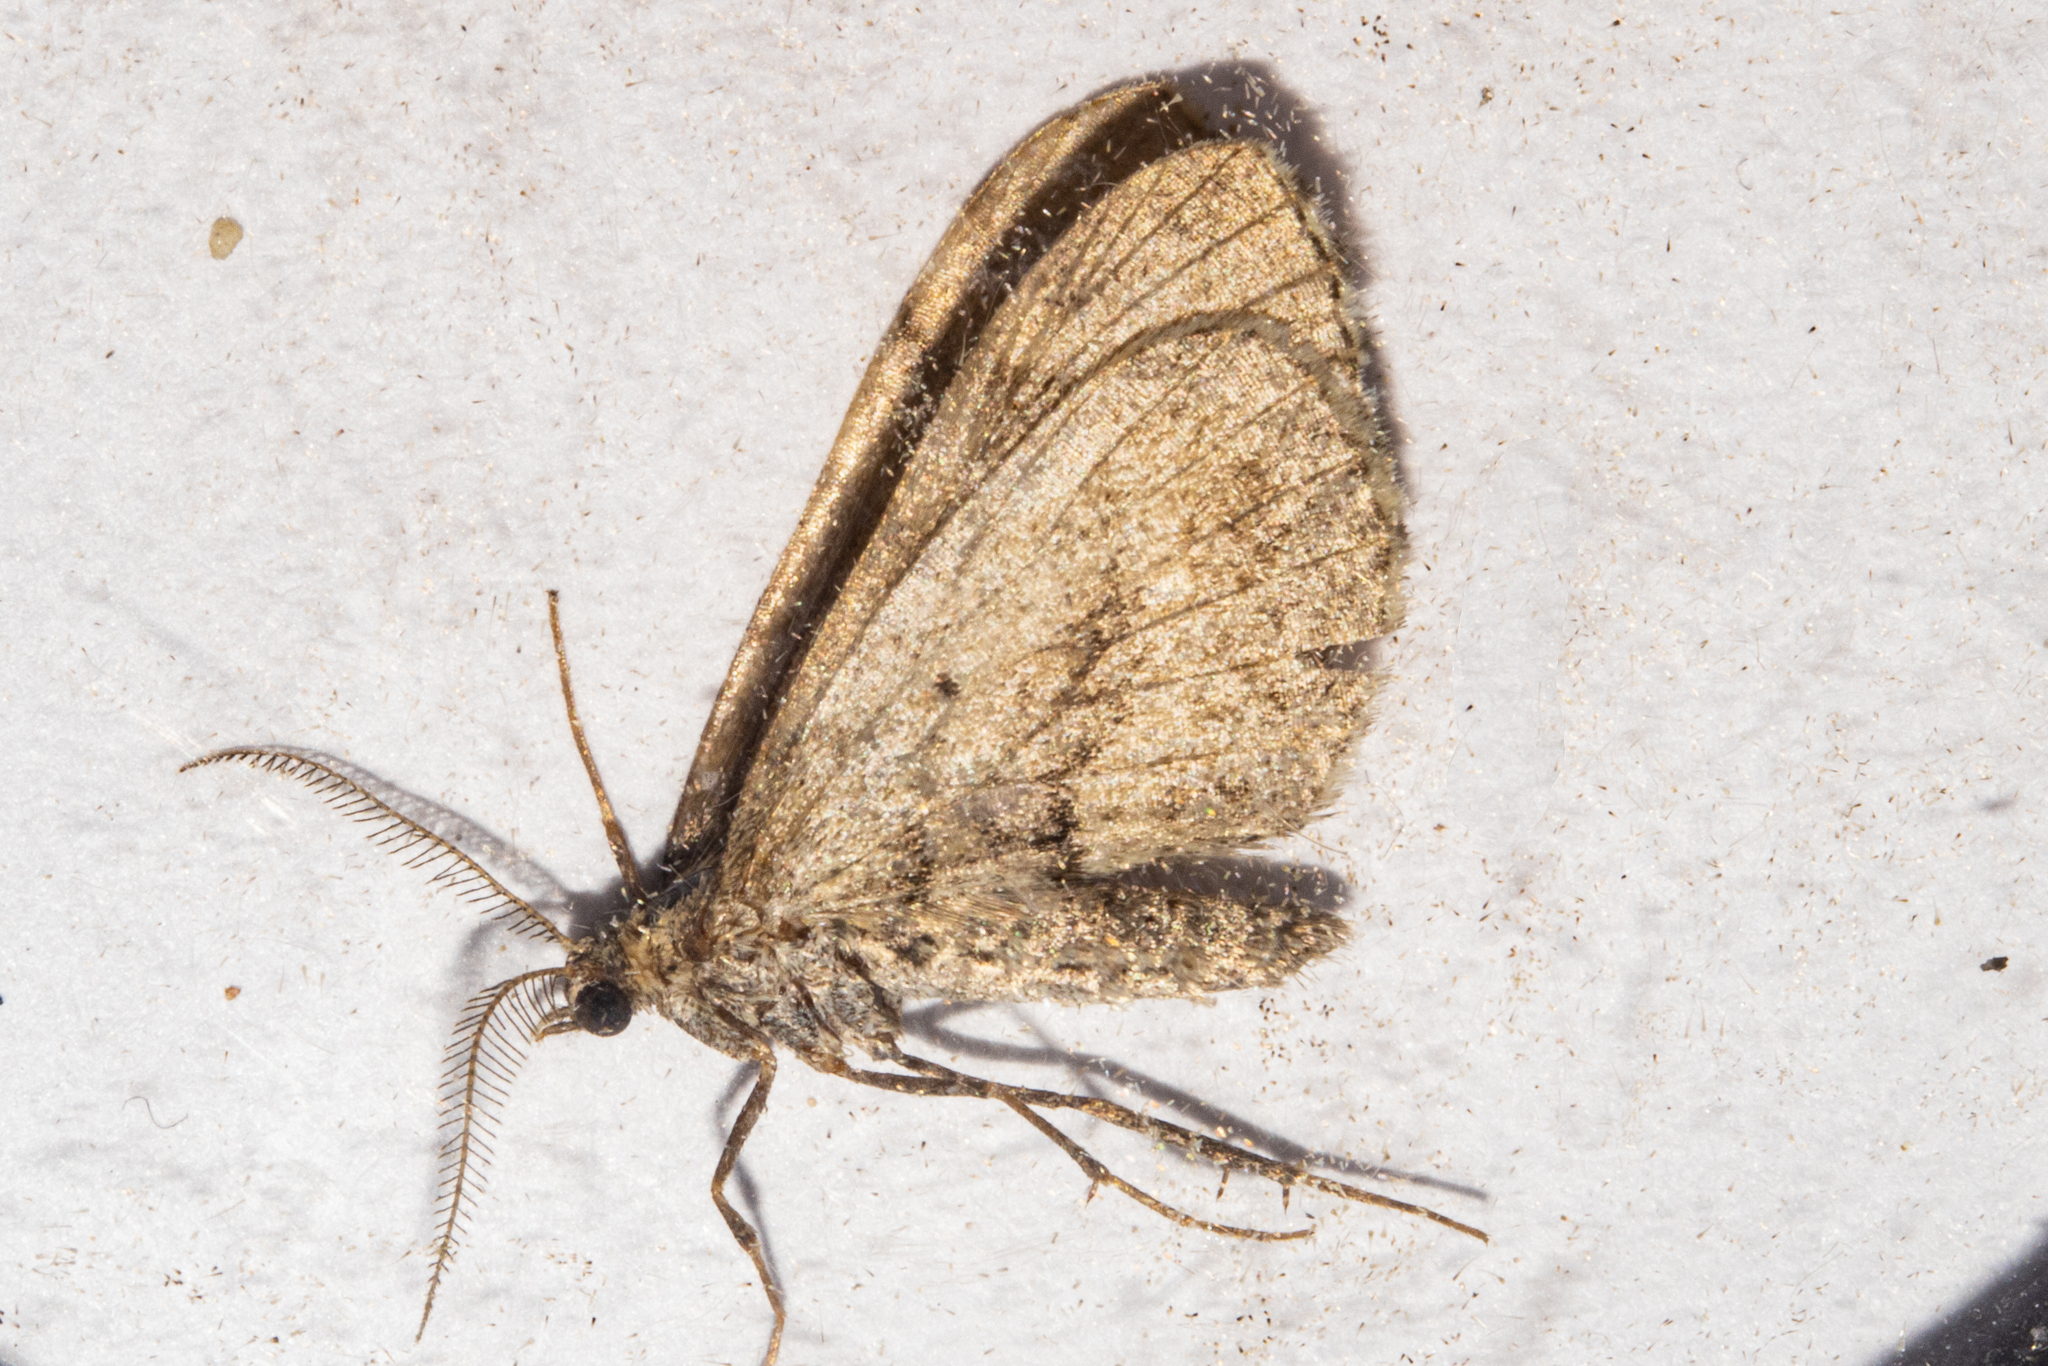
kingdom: Animalia
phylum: Arthropoda
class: Insecta
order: Lepidoptera
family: Geometridae
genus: Asaphodes
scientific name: Asaphodes aegrota
